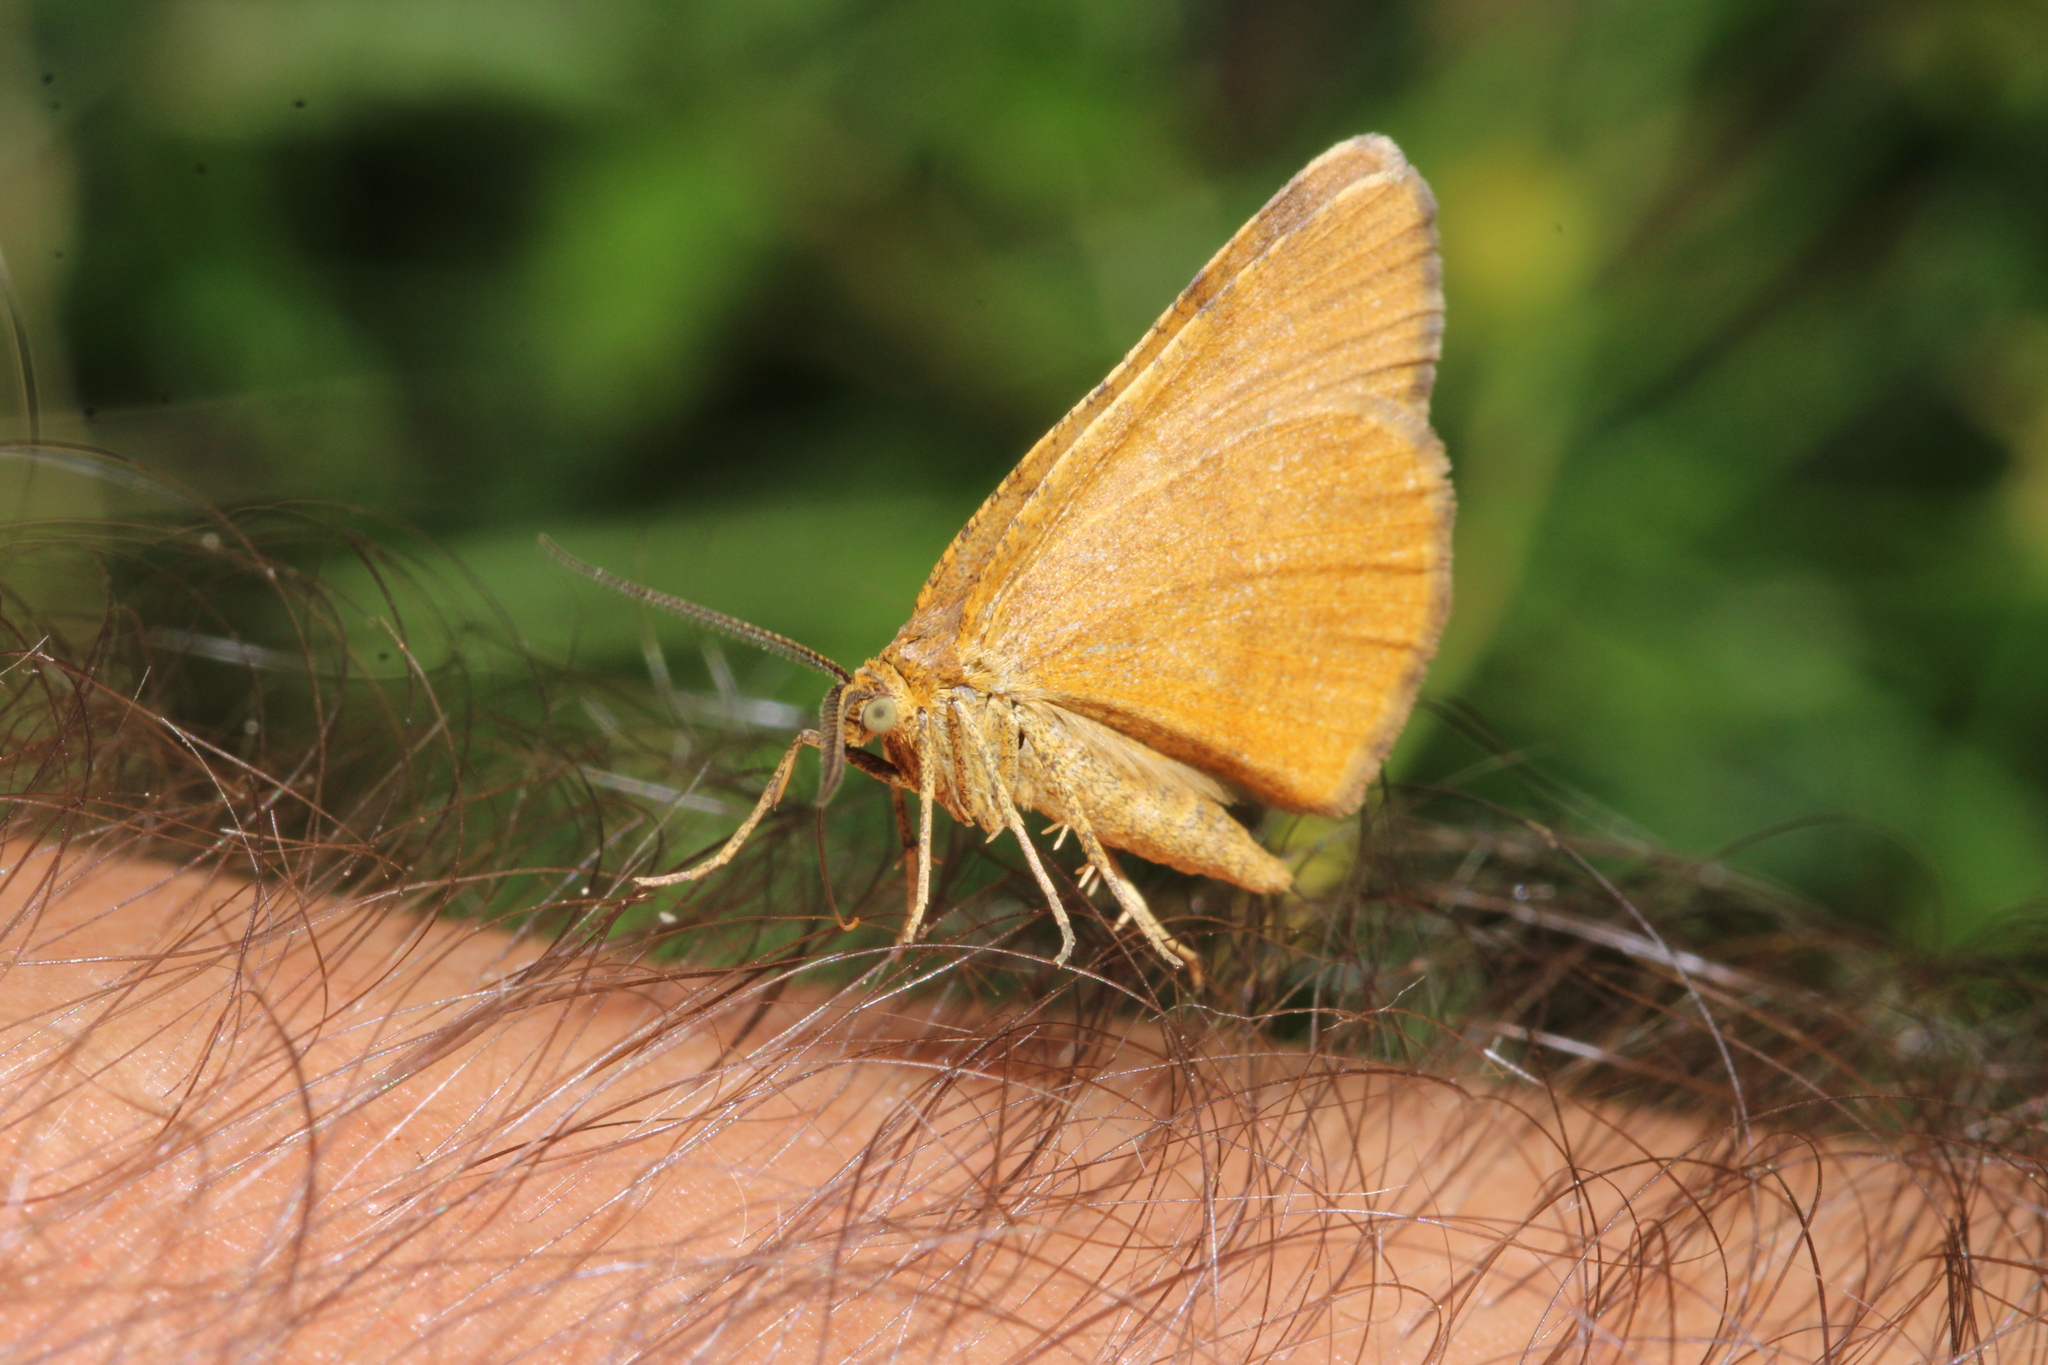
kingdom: Animalia
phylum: Arthropoda
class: Insecta
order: Lepidoptera
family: Geometridae
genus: Macaria
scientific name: Macaria brunneata
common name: Rannoch looper
